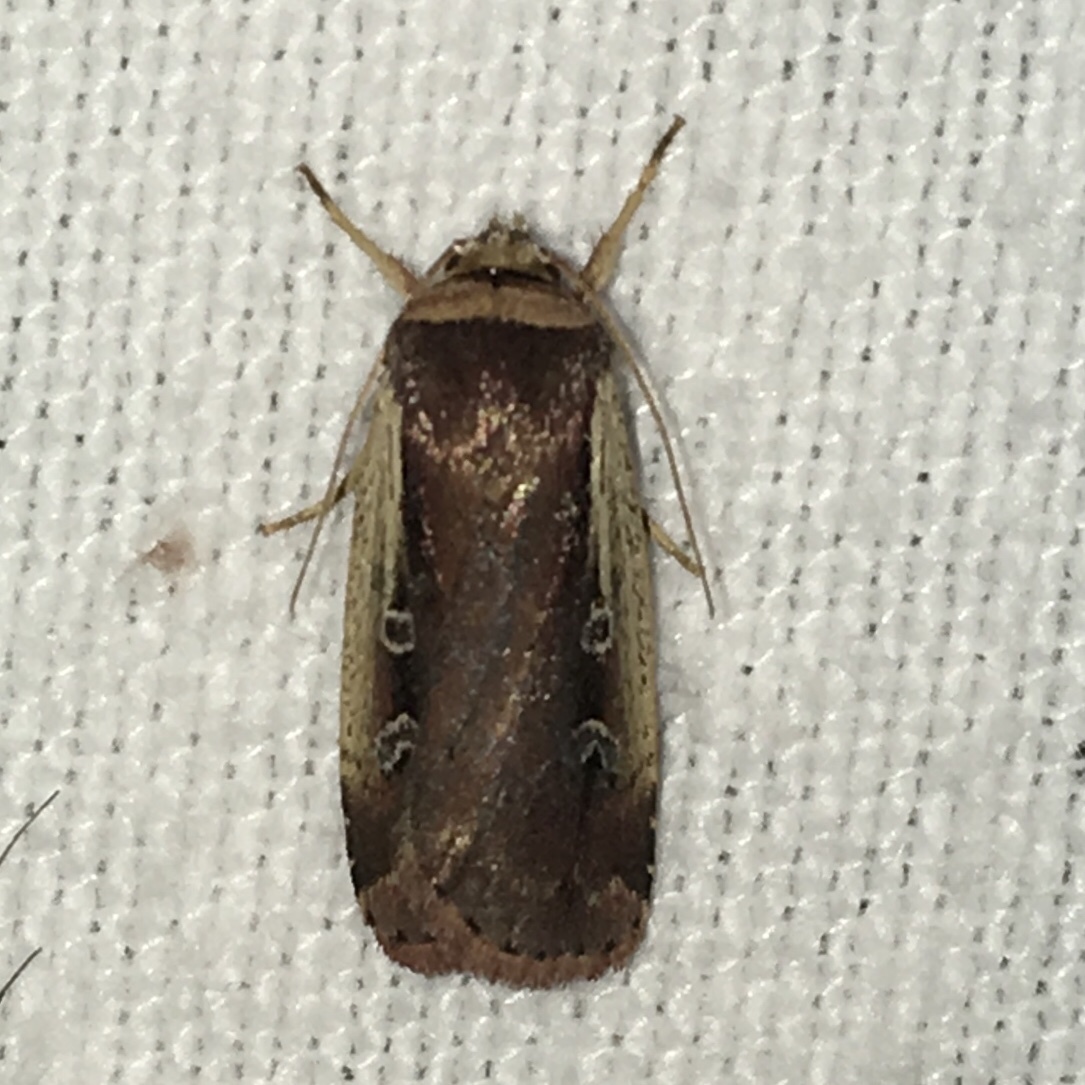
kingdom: Animalia
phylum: Arthropoda
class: Insecta
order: Lepidoptera
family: Noctuidae
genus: Ochropleura
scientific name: Ochropleura implecta
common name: Flame-shouldered dart
